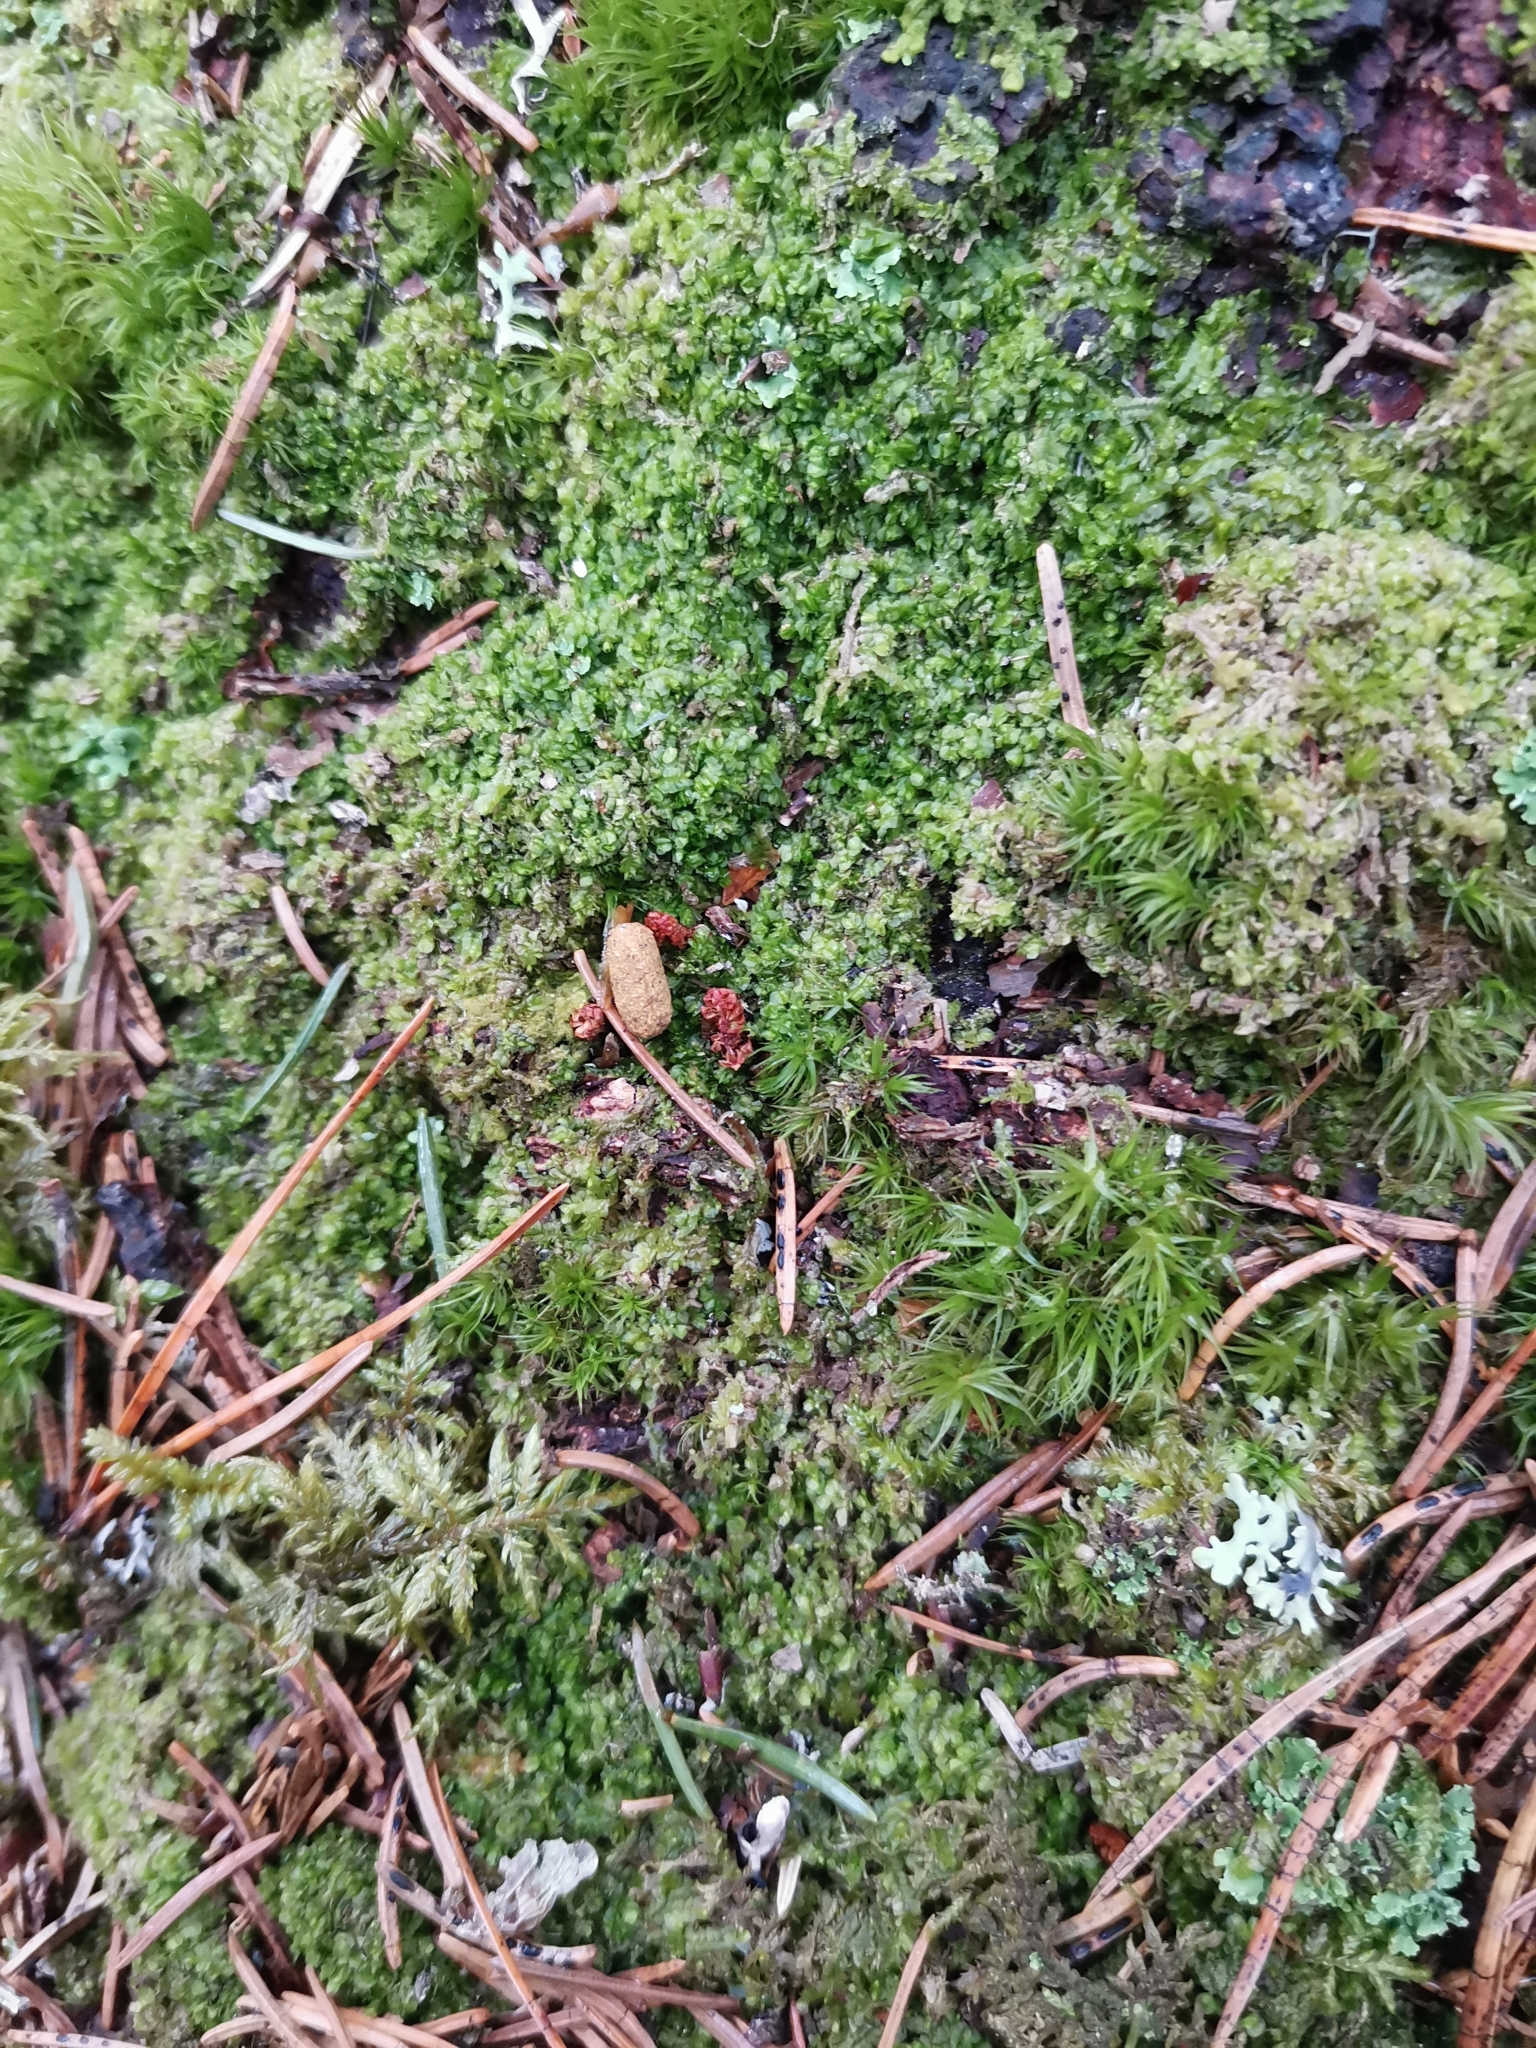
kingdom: Animalia
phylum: Chordata
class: Mammalia
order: Rodentia
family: Sciuridae
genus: Pteromys
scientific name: Pteromys volans
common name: Siberian flying squirrel
